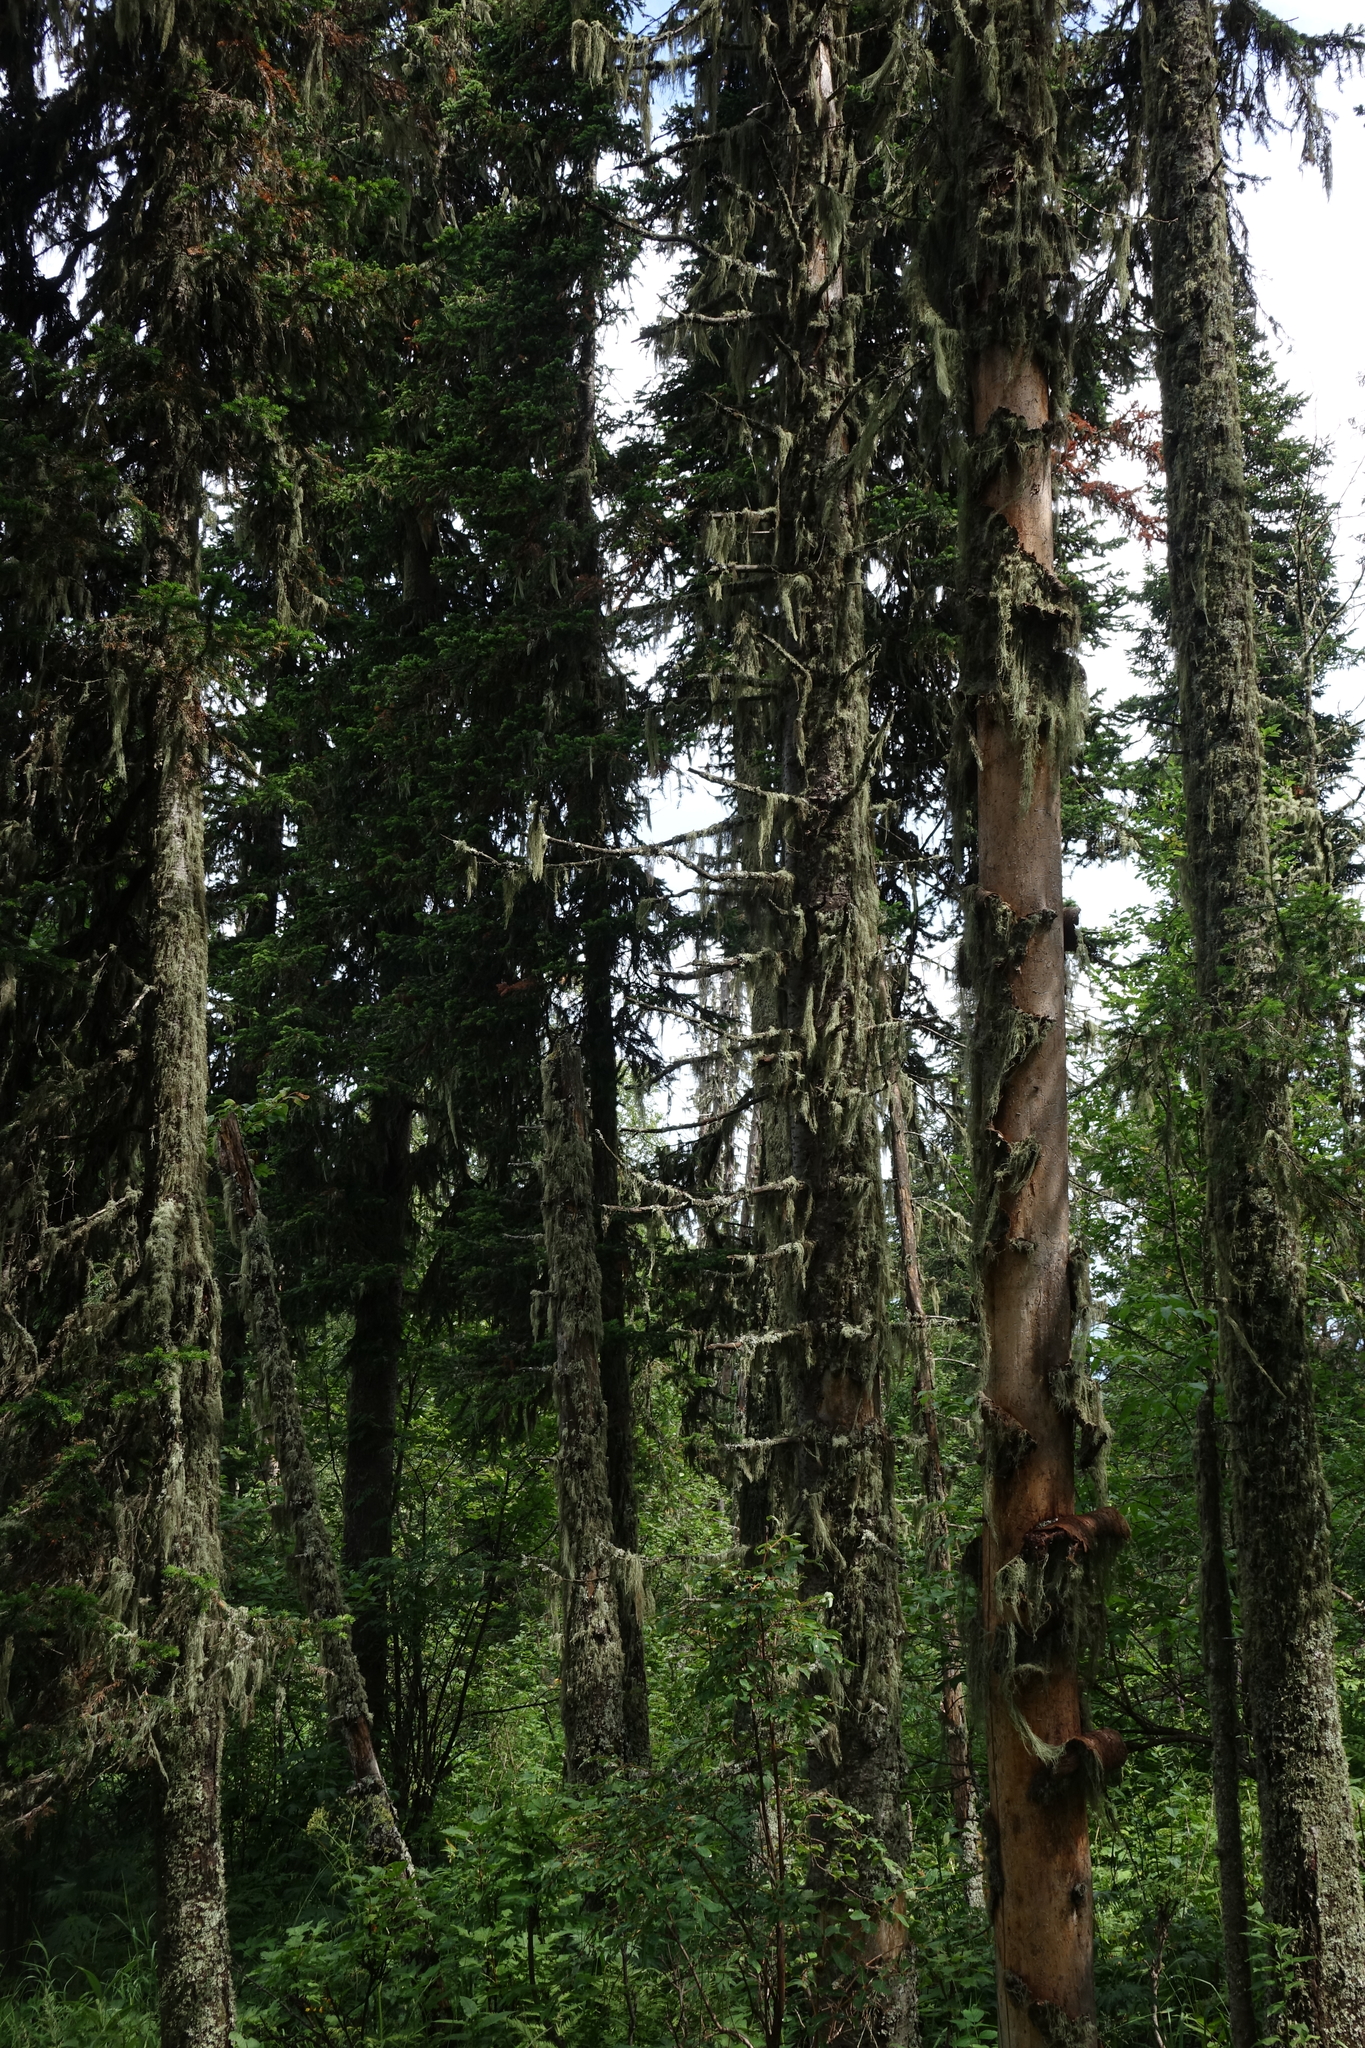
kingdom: Plantae
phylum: Tracheophyta
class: Pinopsida
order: Pinales
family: Pinaceae
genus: Abies
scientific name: Abies sibirica
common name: Siberian fir
